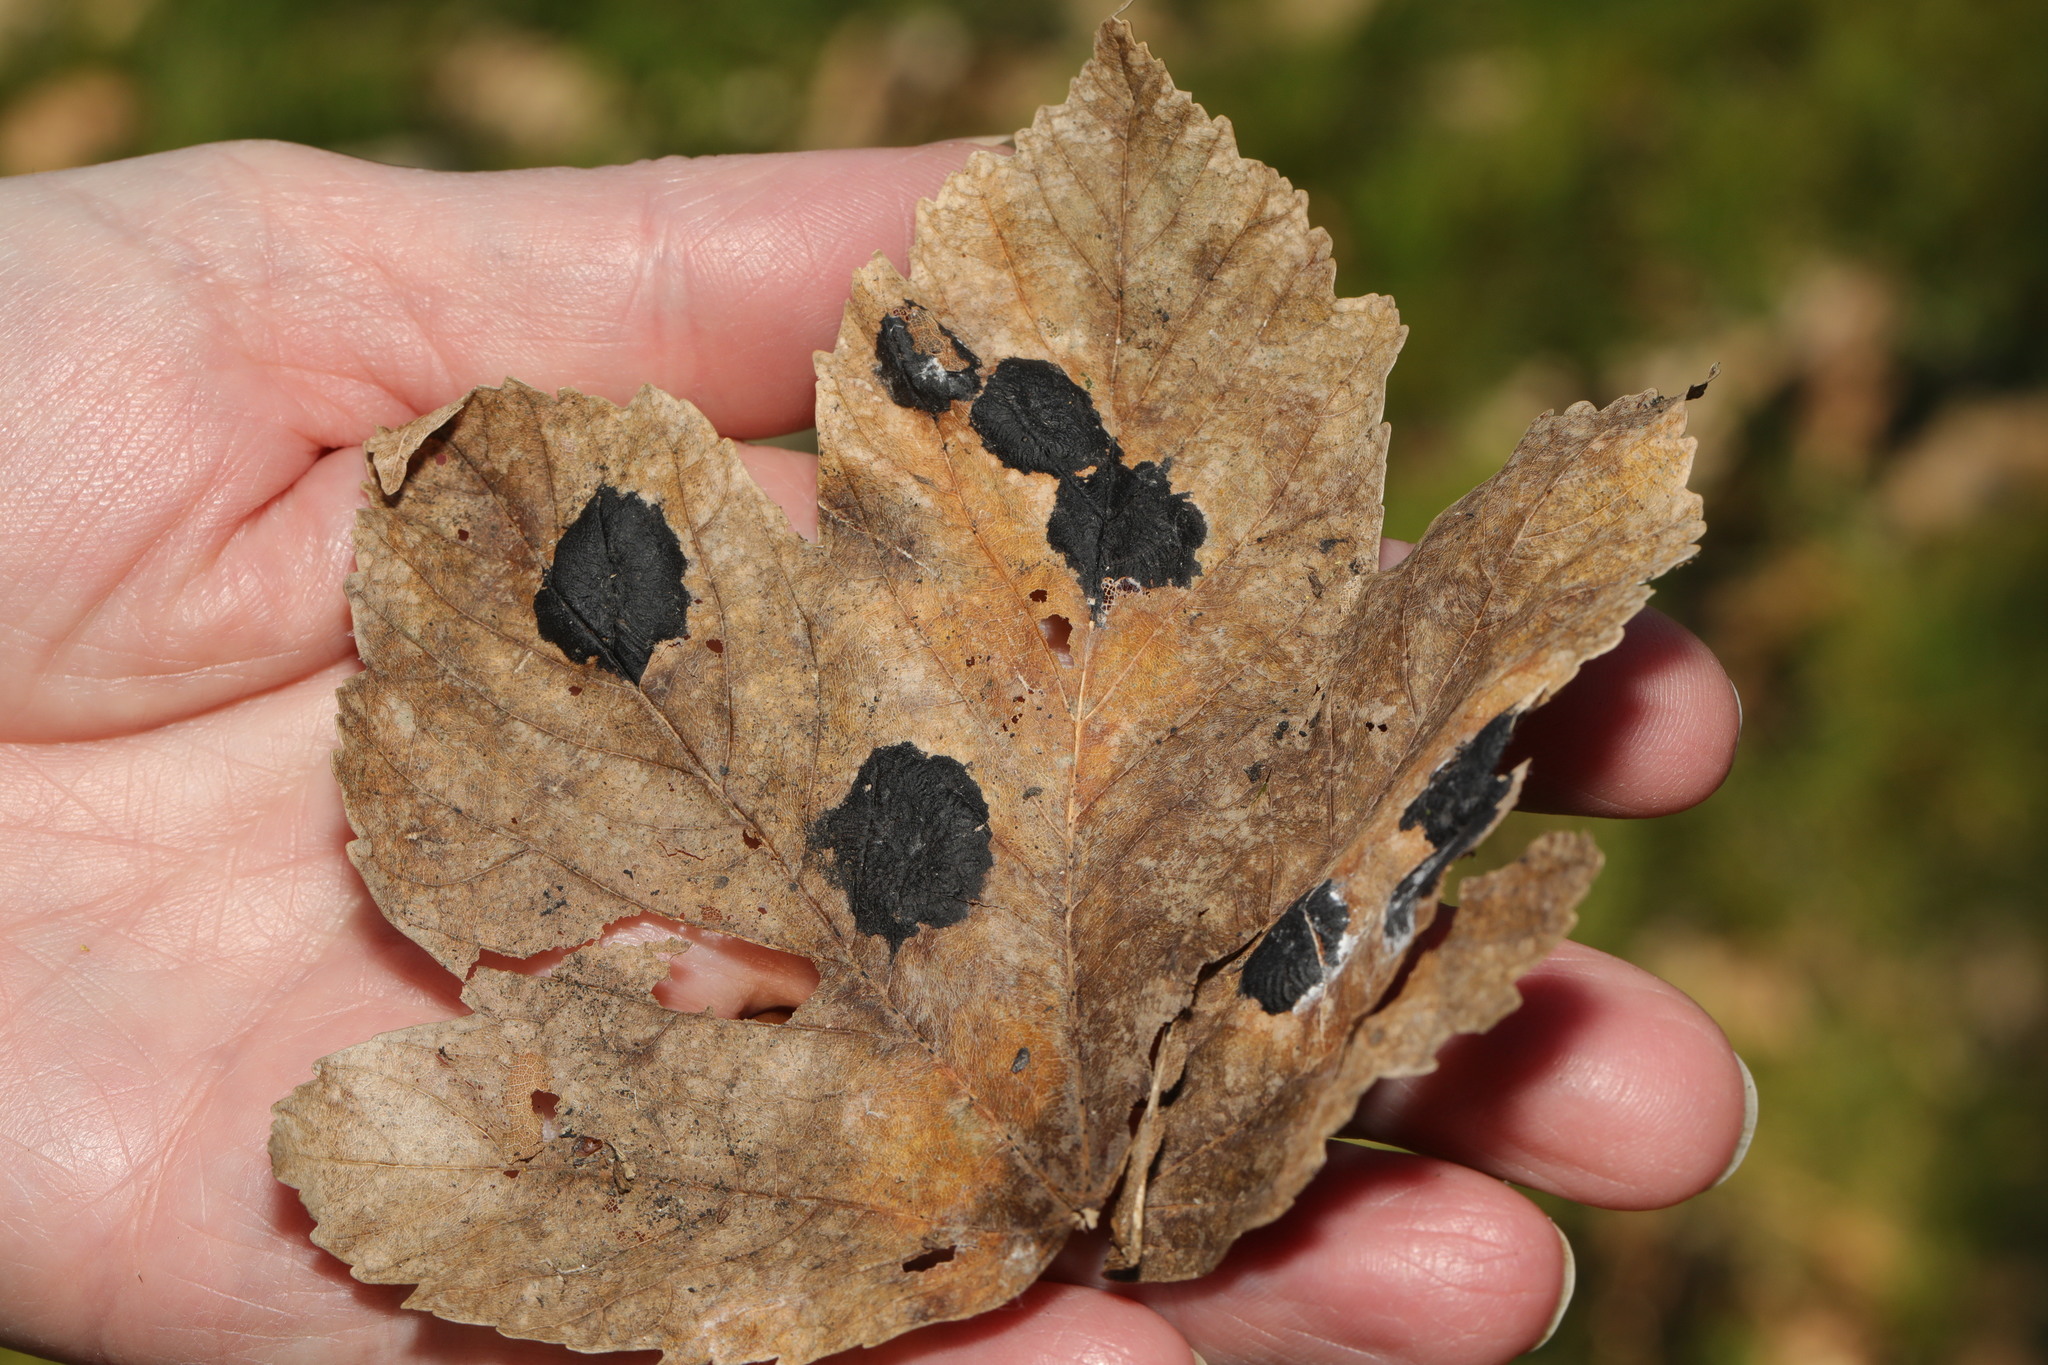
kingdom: Fungi
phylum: Ascomycota
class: Leotiomycetes
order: Rhytismatales
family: Rhytismataceae
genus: Rhytisma
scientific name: Rhytisma acerinum
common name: European tar spot
